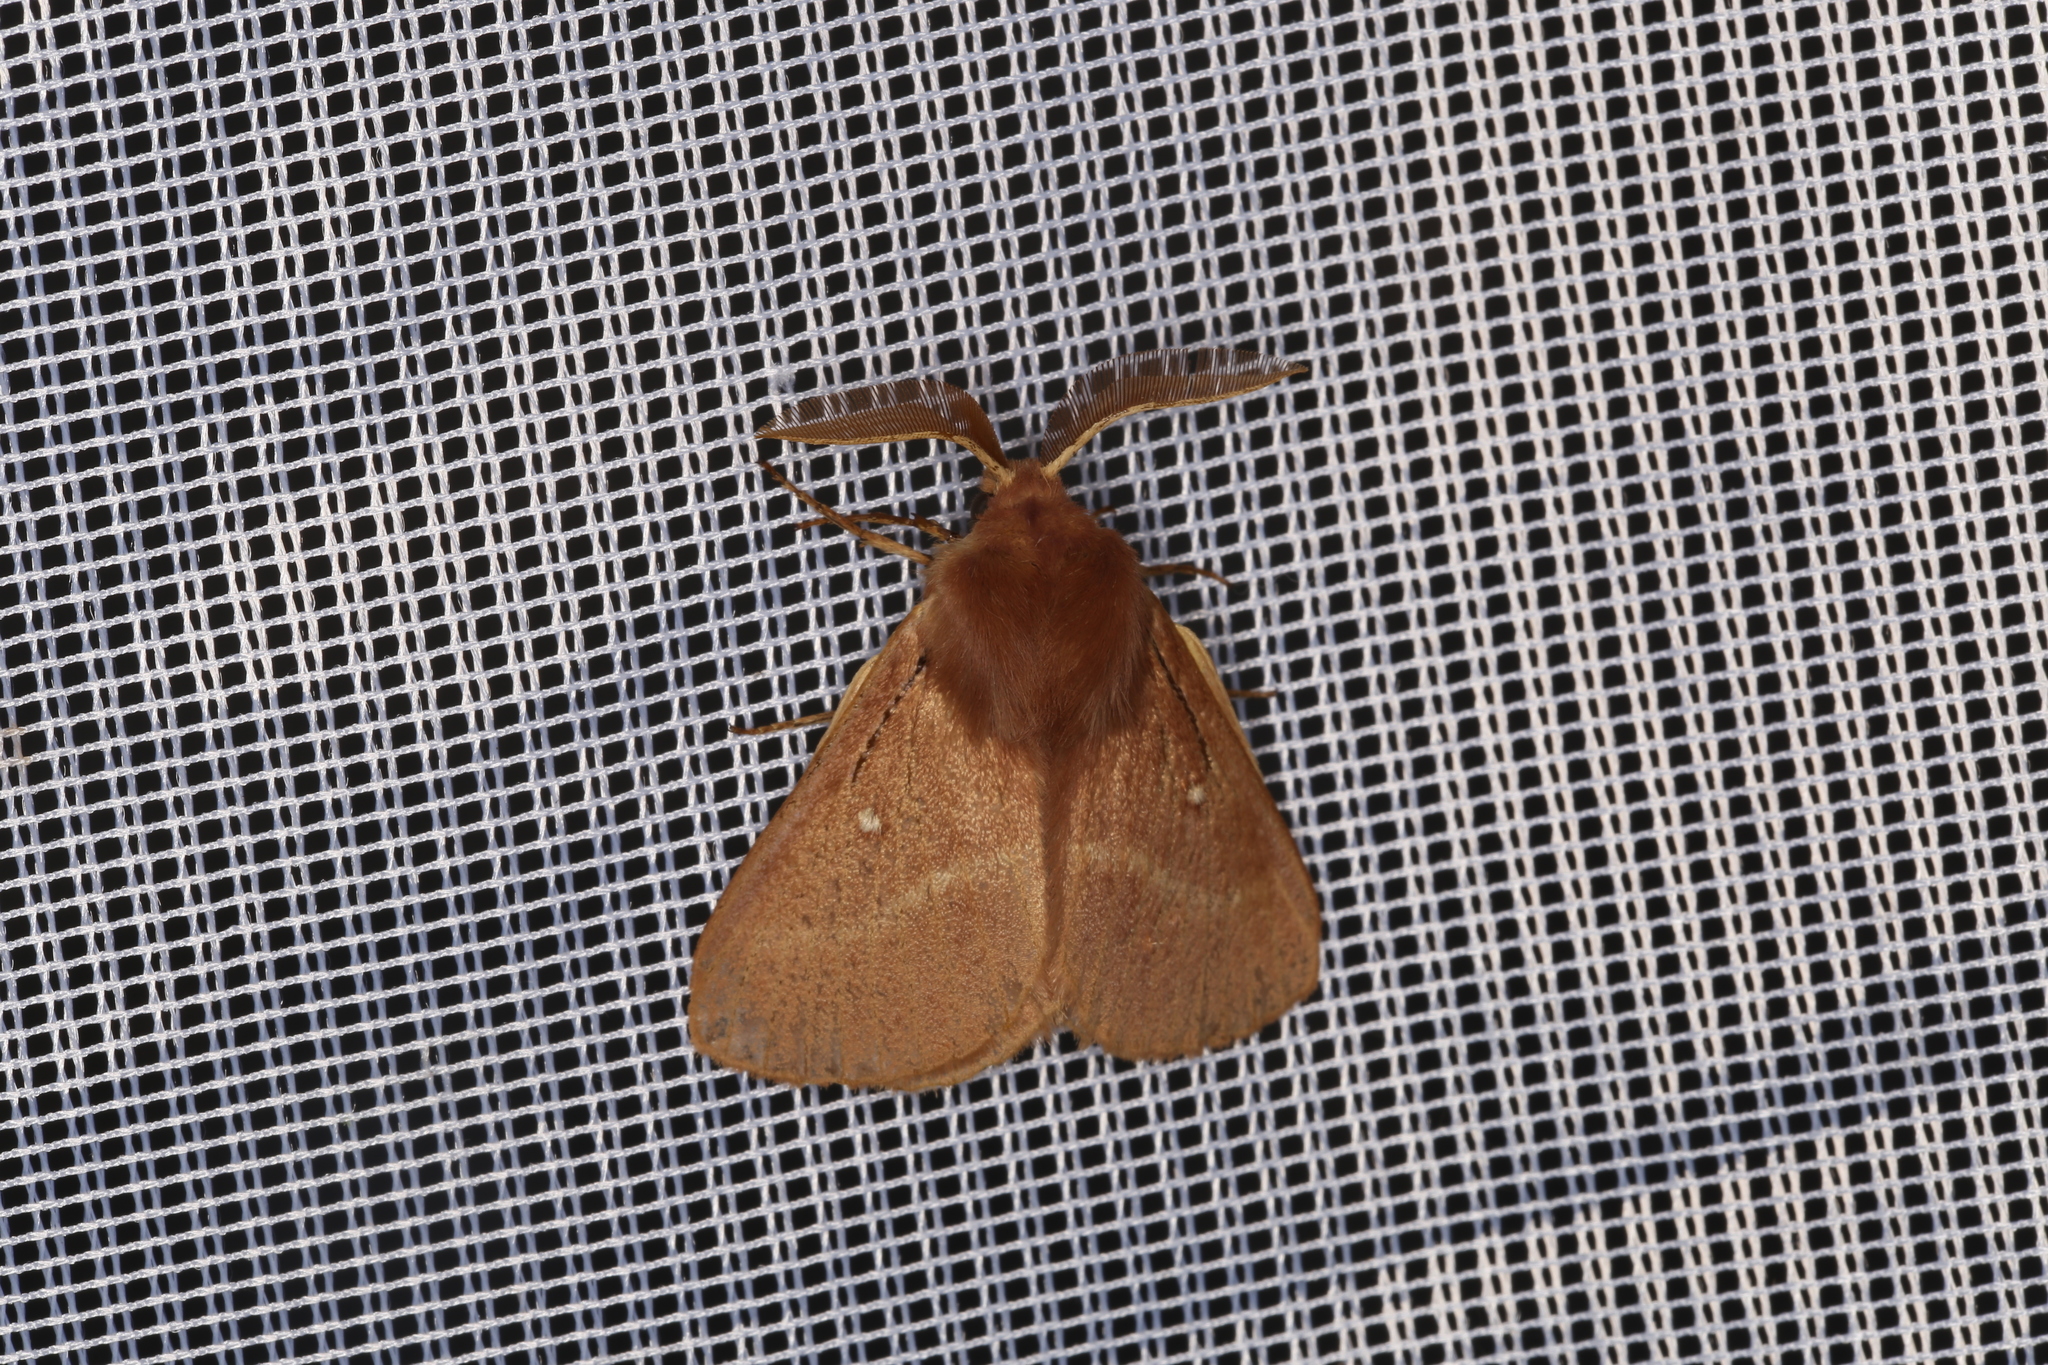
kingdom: Animalia
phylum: Arthropoda
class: Insecta
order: Lepidoptera
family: Lasiocampidae
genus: Lasiocampa
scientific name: Lasiocampa trifolii
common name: Grass eggar
